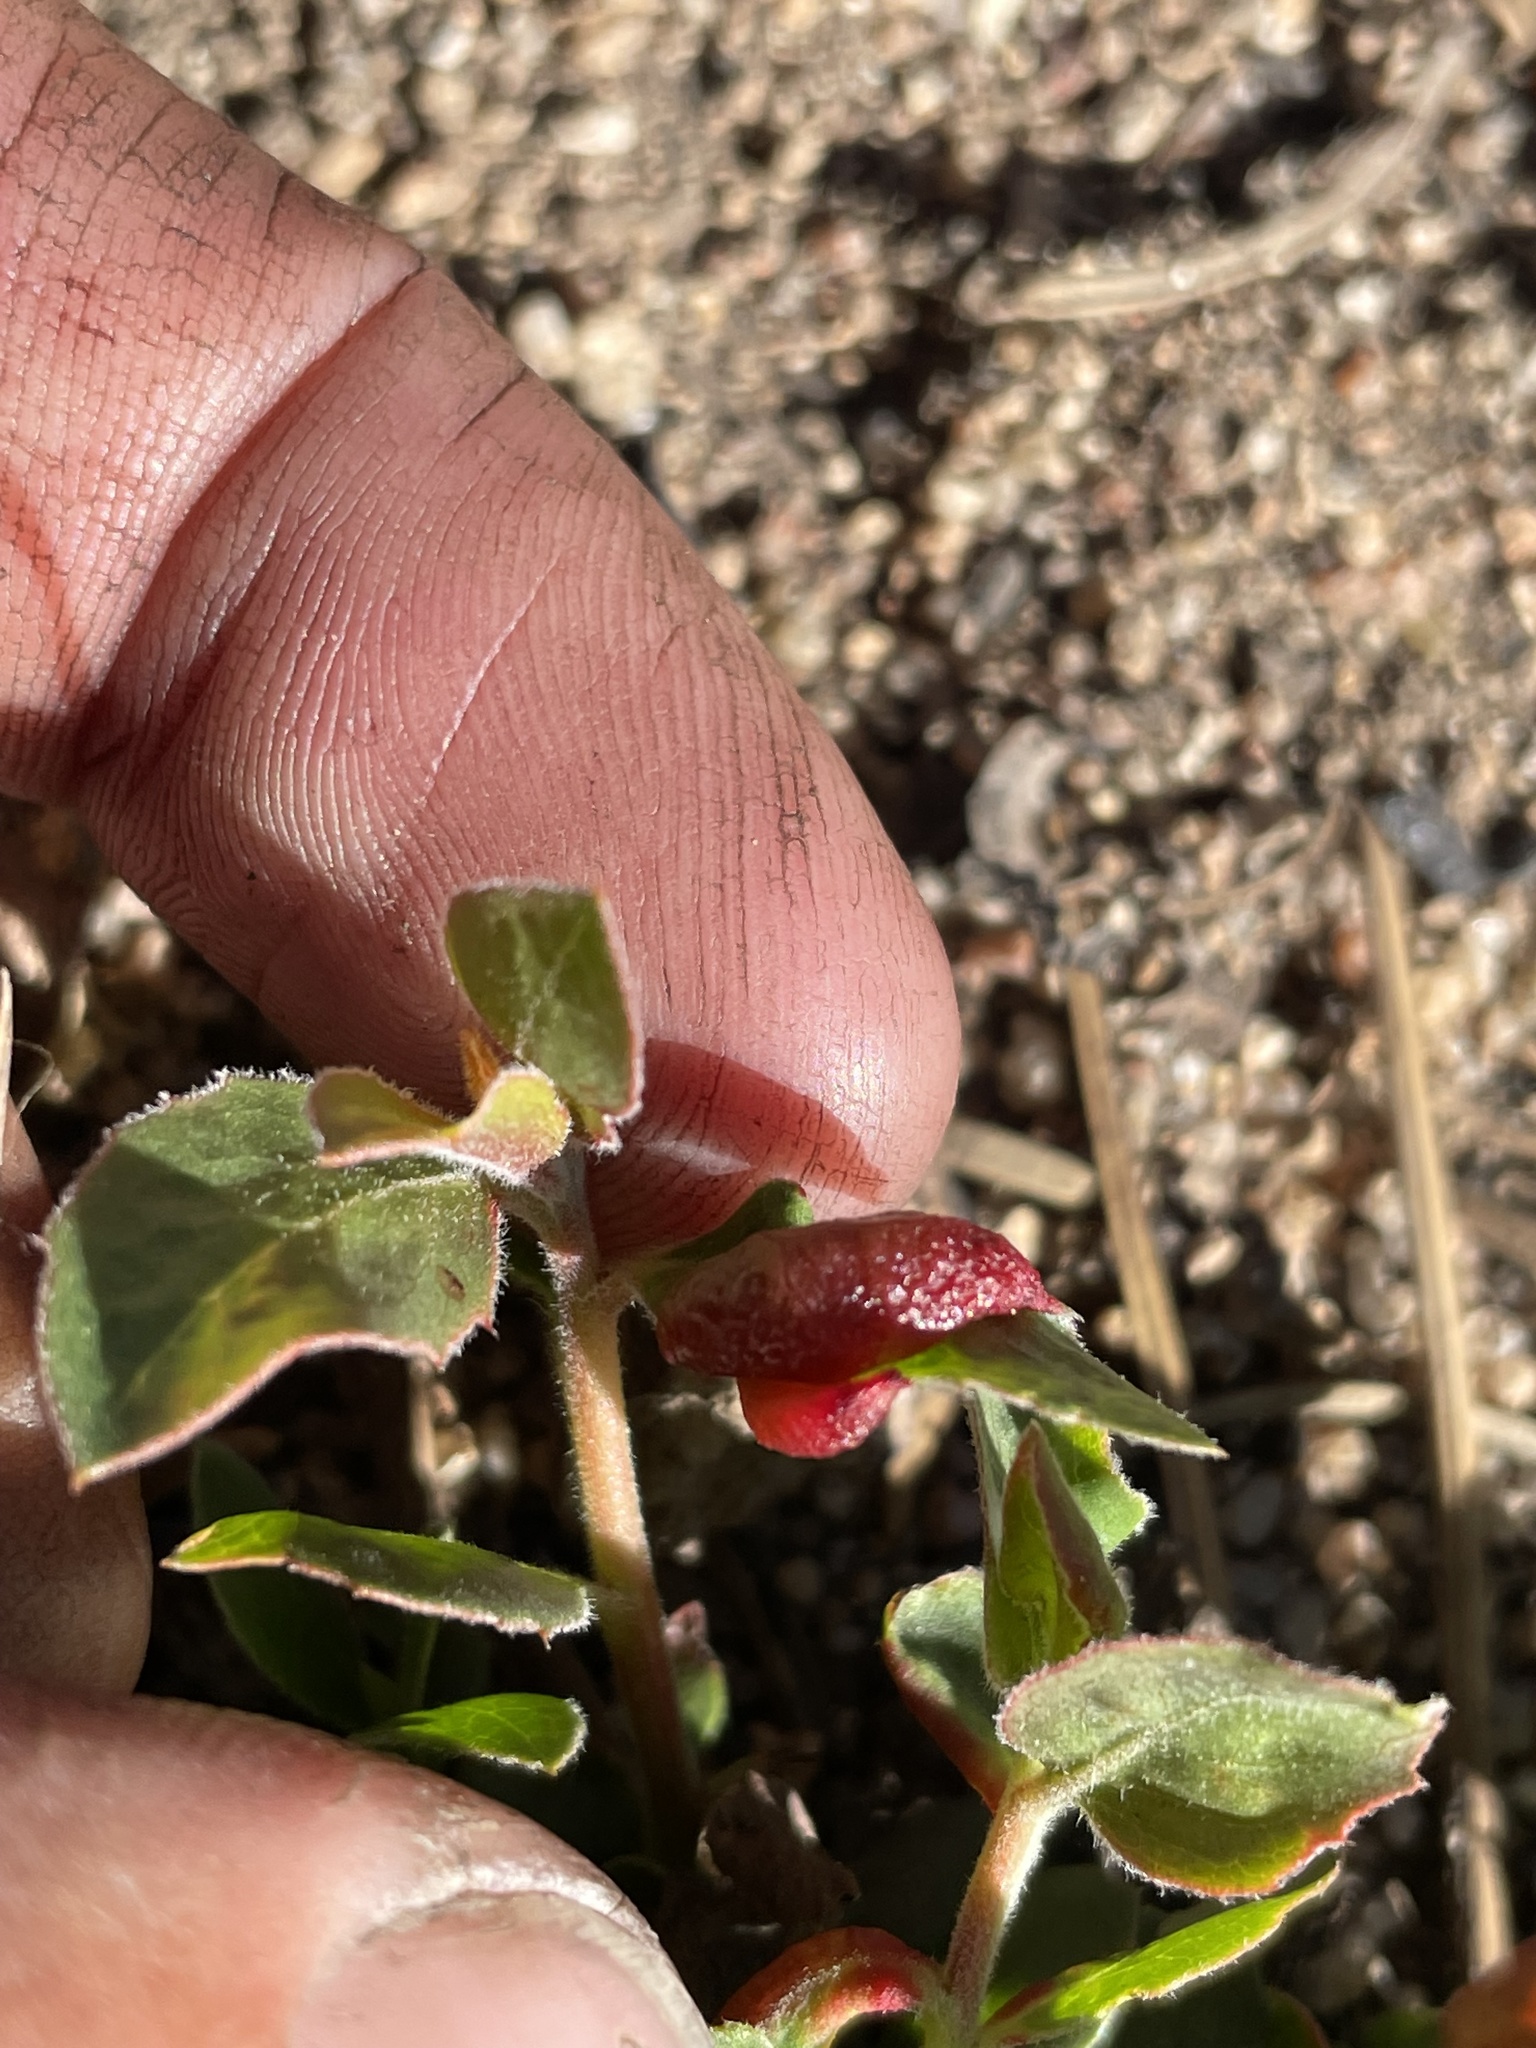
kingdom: Animalia
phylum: Arthropoda
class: Insecta
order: Hemiptera
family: Aphididae
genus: Tamalia
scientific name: Tamalia coweni
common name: Manzanita leafgall aphid
